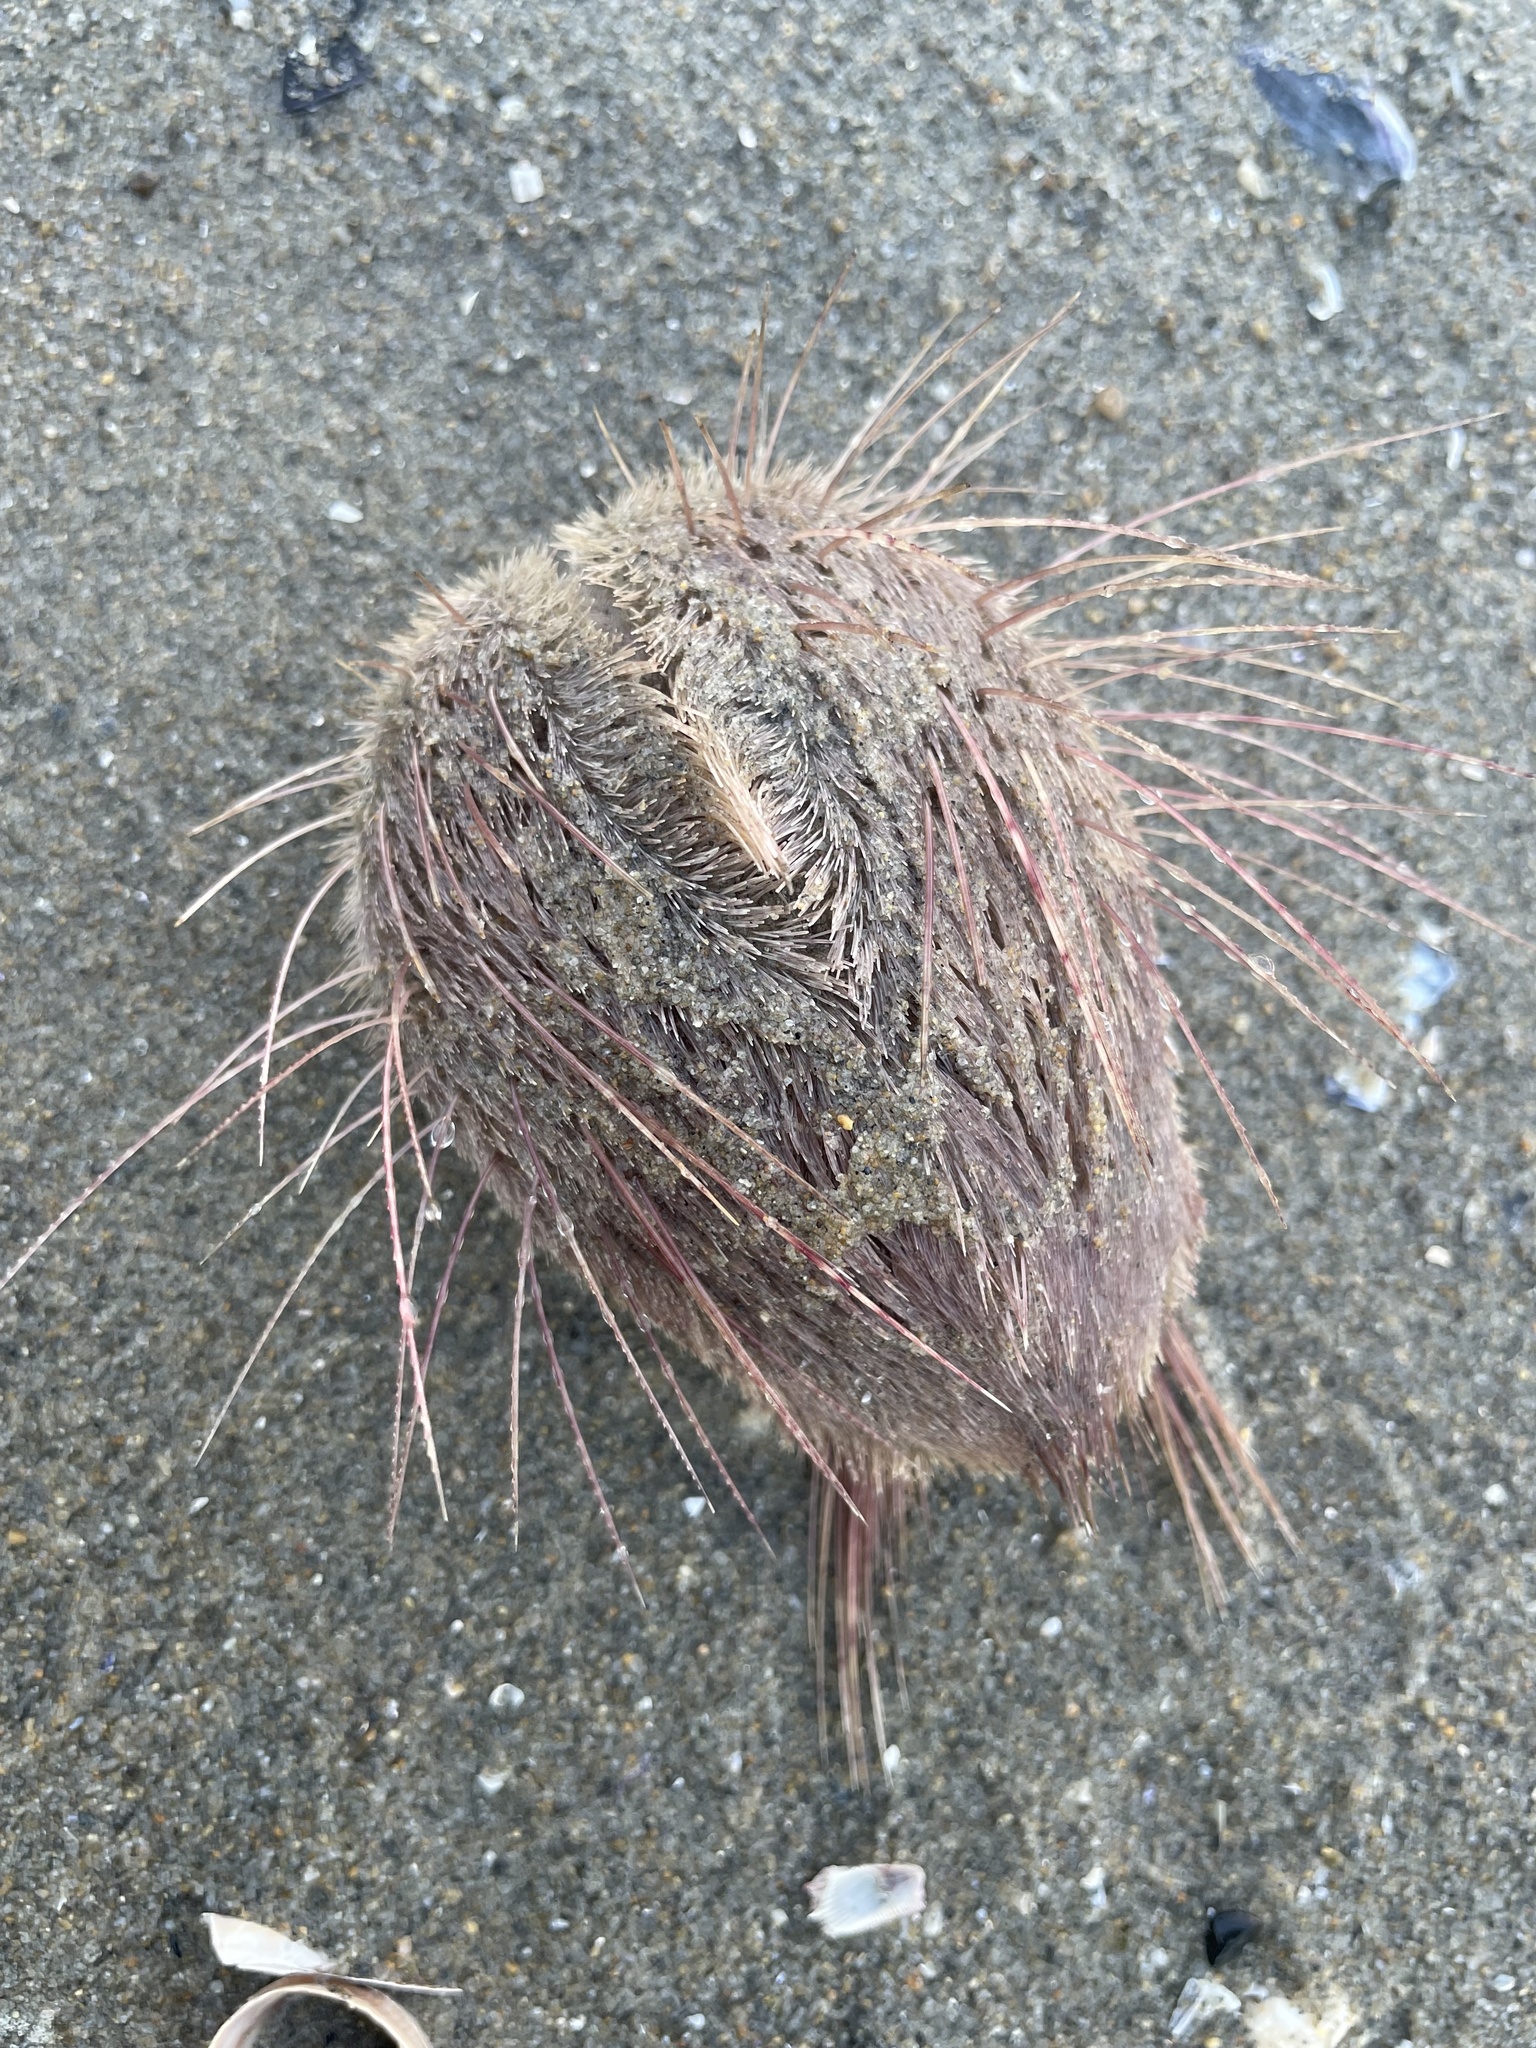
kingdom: Animalia
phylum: Echinodermata
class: Echinoidea
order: Spatangoida
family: Loveniidae
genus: Lovenia
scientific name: Lovenia cordiformis
